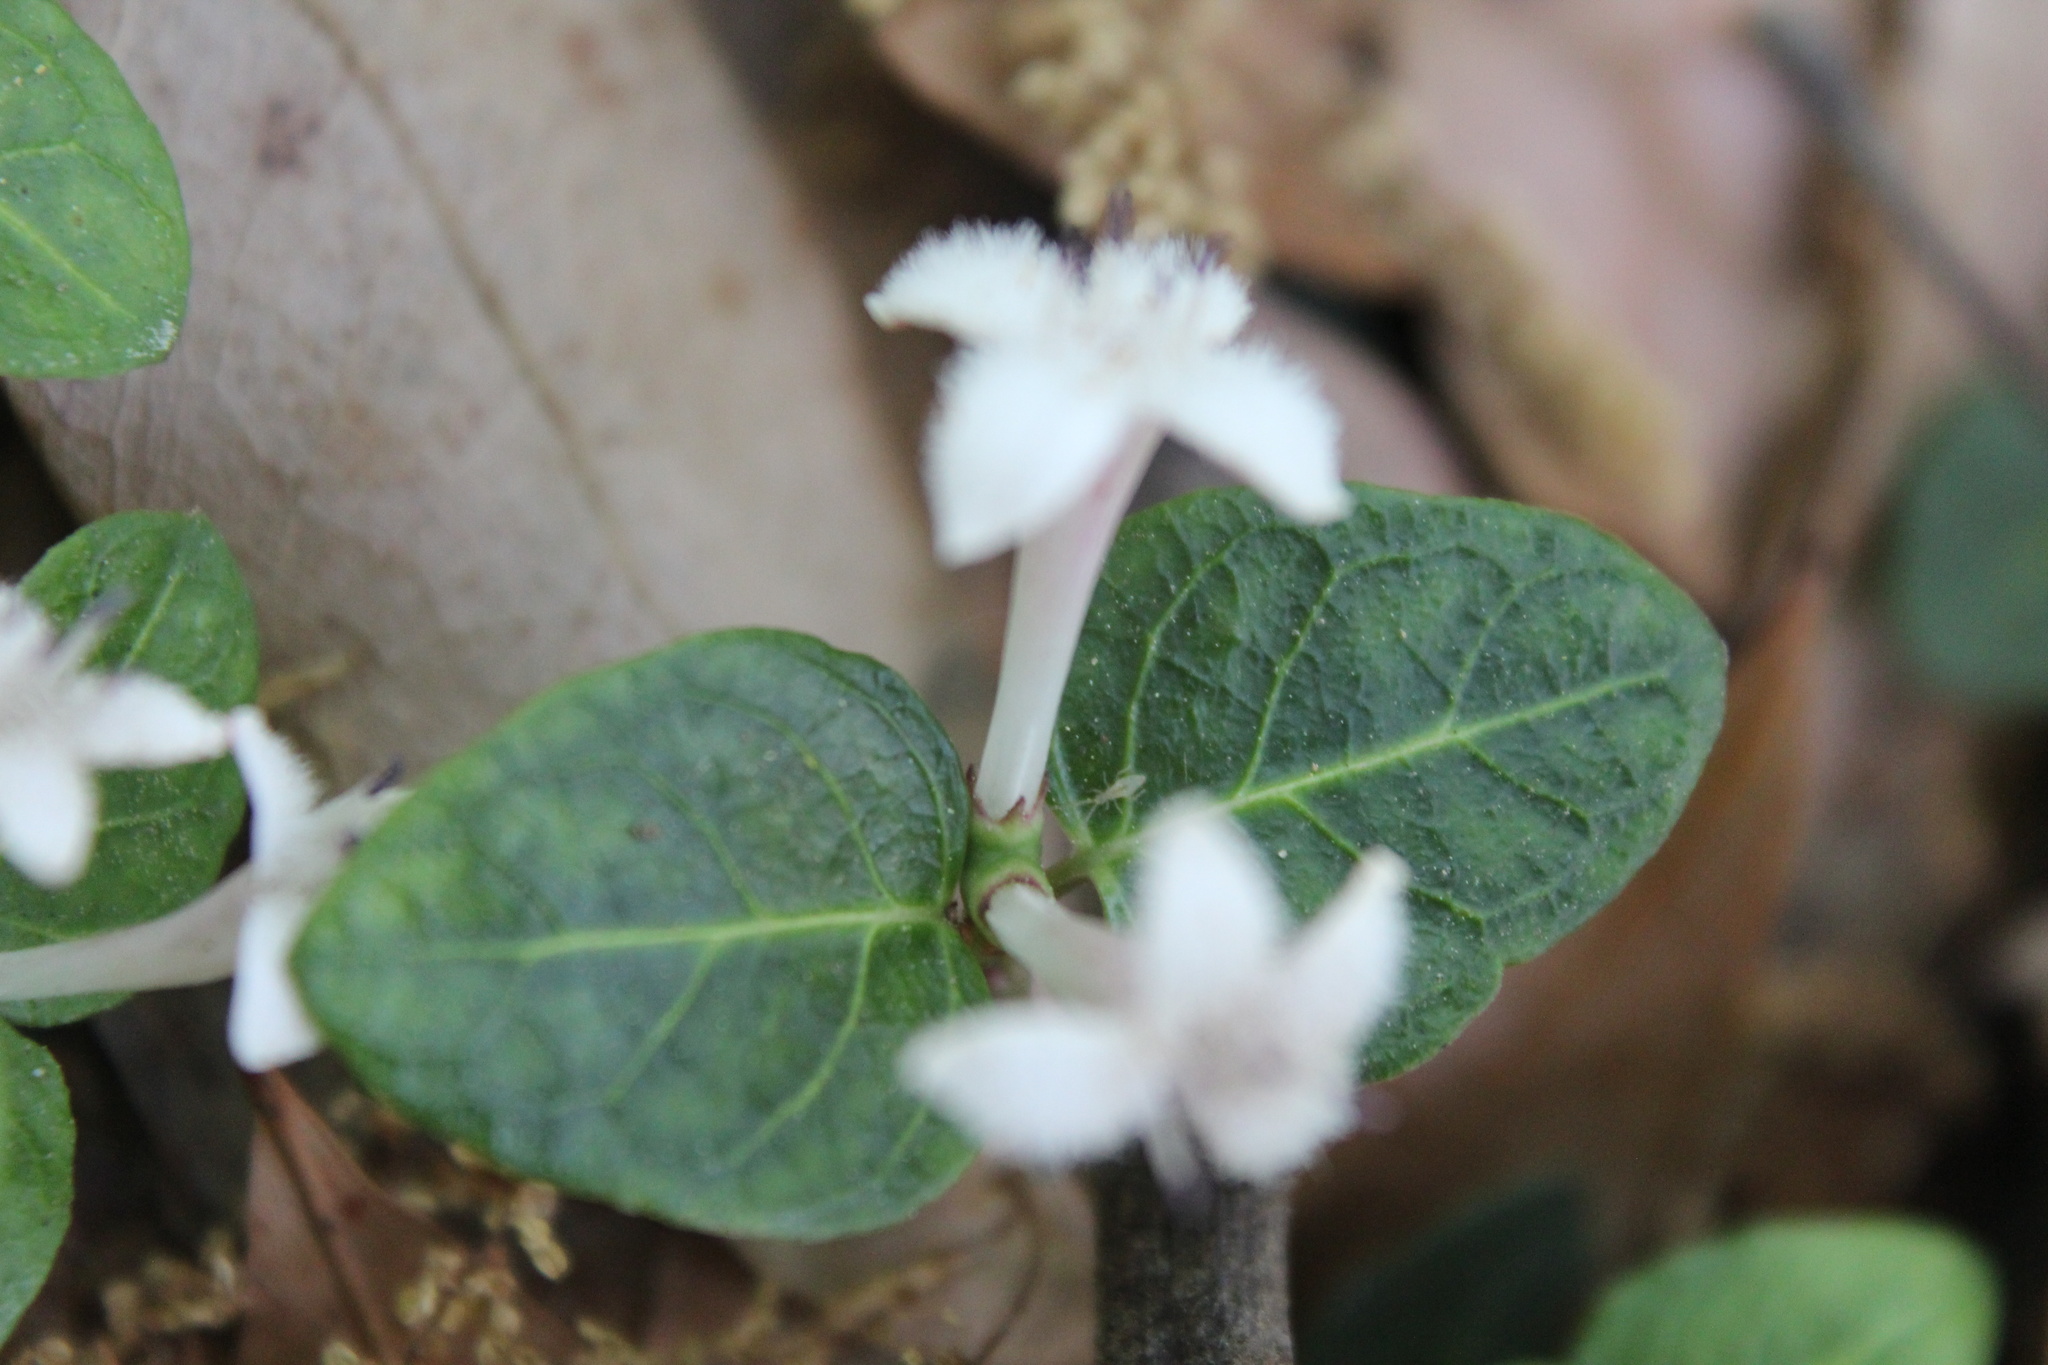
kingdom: Plantae
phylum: Tracheophyta
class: Magnoliopsida
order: Gentianales
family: Rubiaceae
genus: Mitchella
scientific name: Mitchella repens
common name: Partridge-berry
